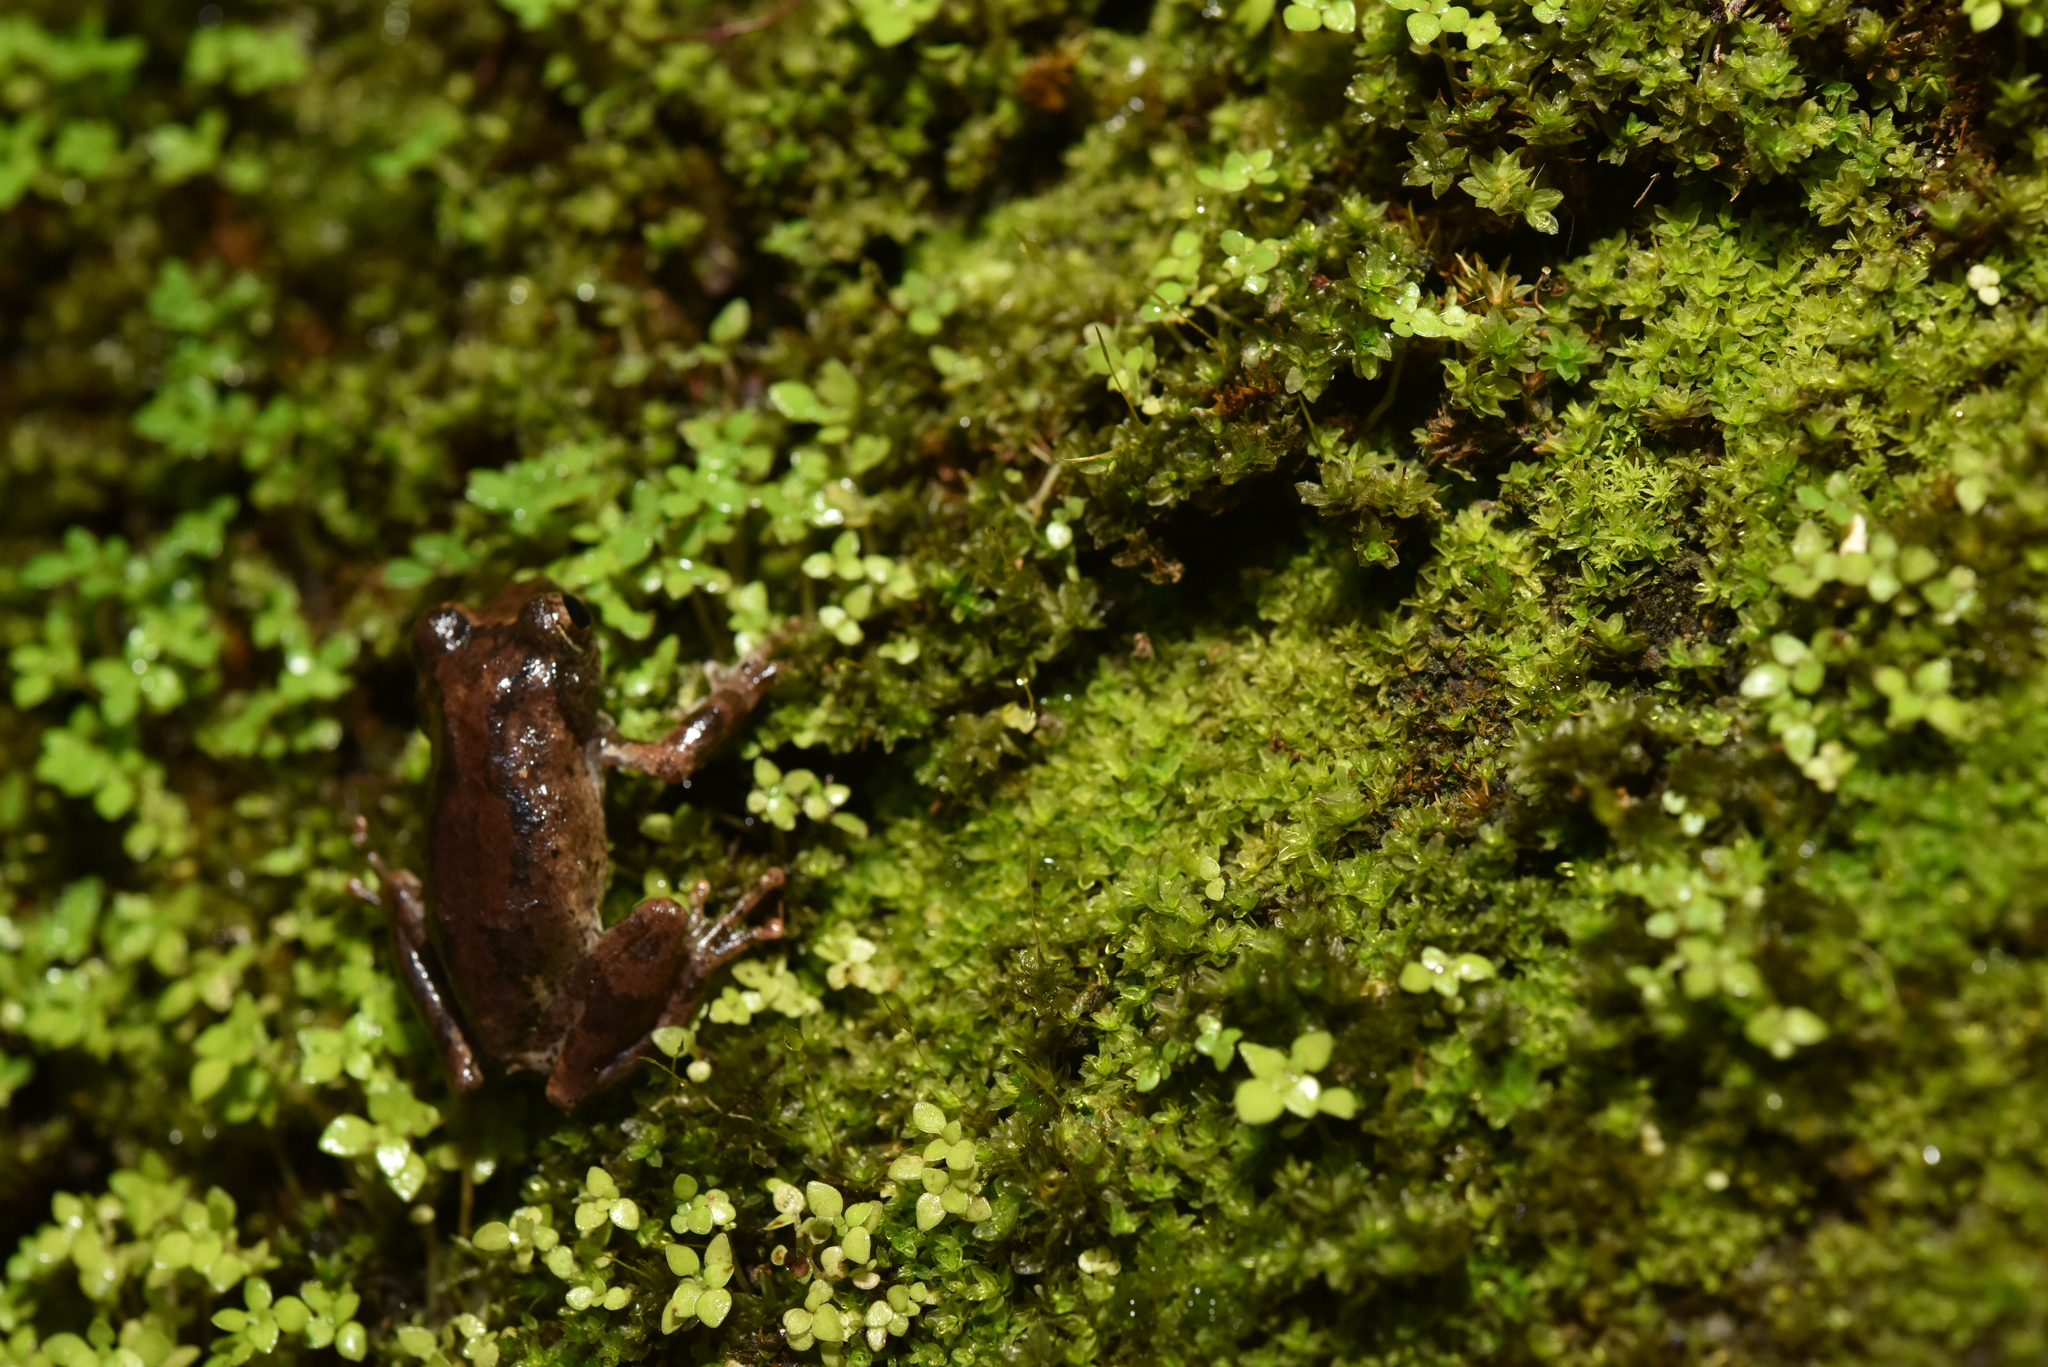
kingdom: Animalia
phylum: Chordata
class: Amphibia
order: Anura
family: Rhacophoridae
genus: Kurixalus
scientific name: Kurixalus idiootocus
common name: Temple treefrog
